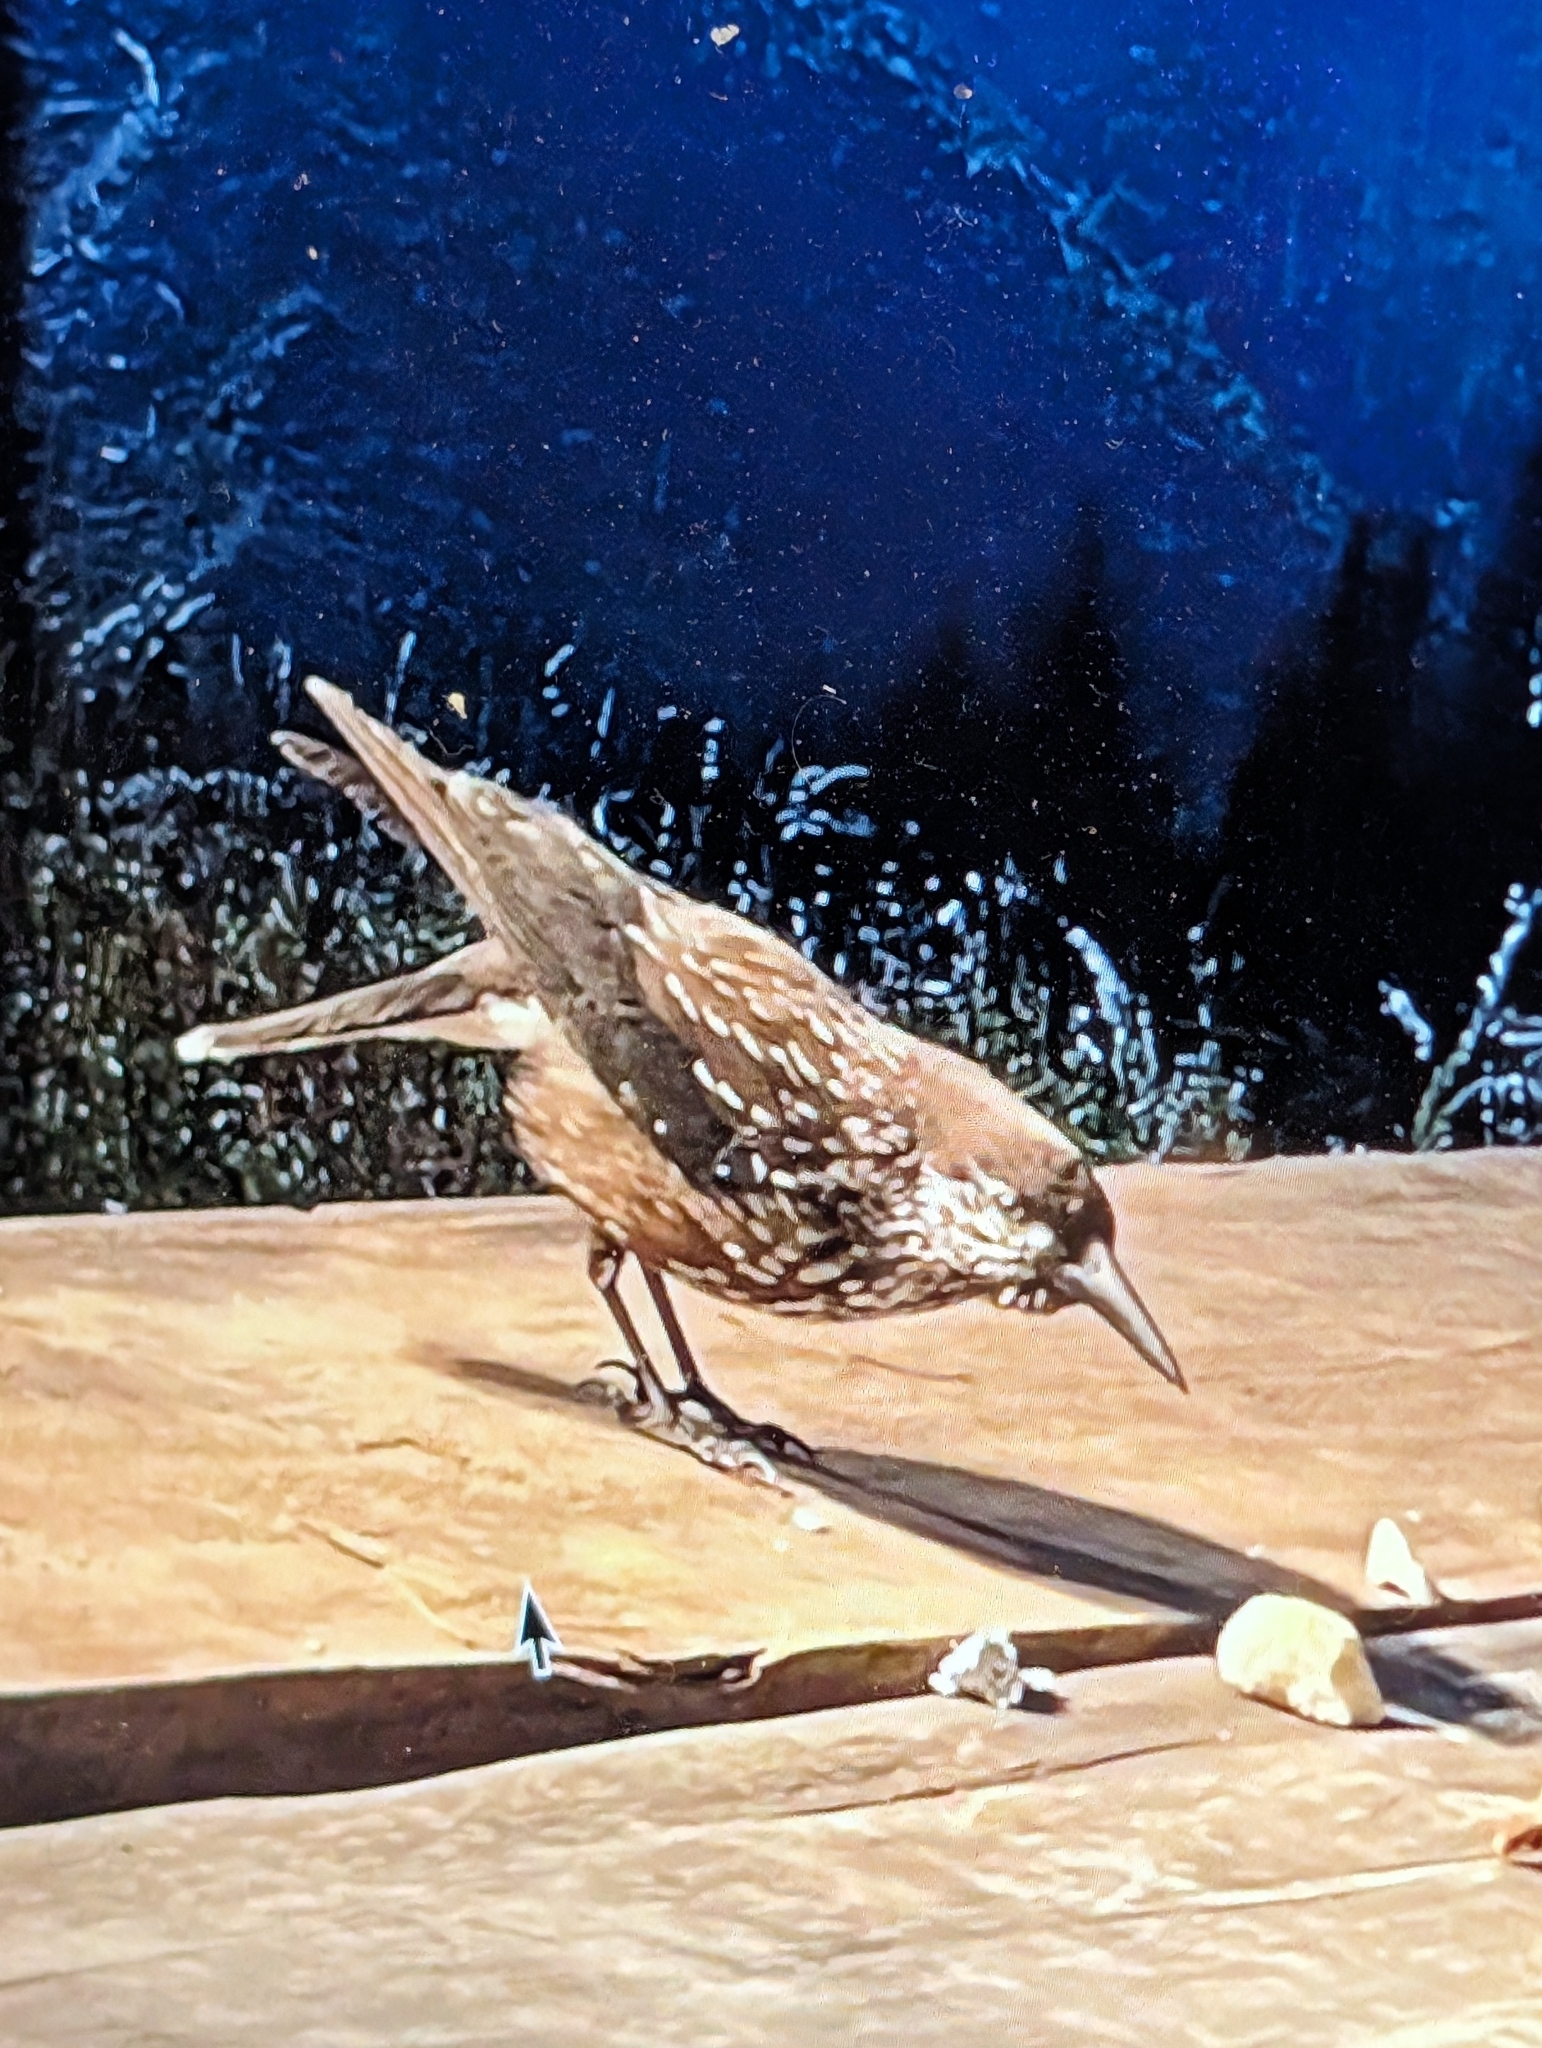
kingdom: Animalia
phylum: Chordata
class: Aves
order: Passeriformes
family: Corvidae
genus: Nucifraga
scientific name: Nucifraga caryocatactes
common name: Spotted nutcracker
